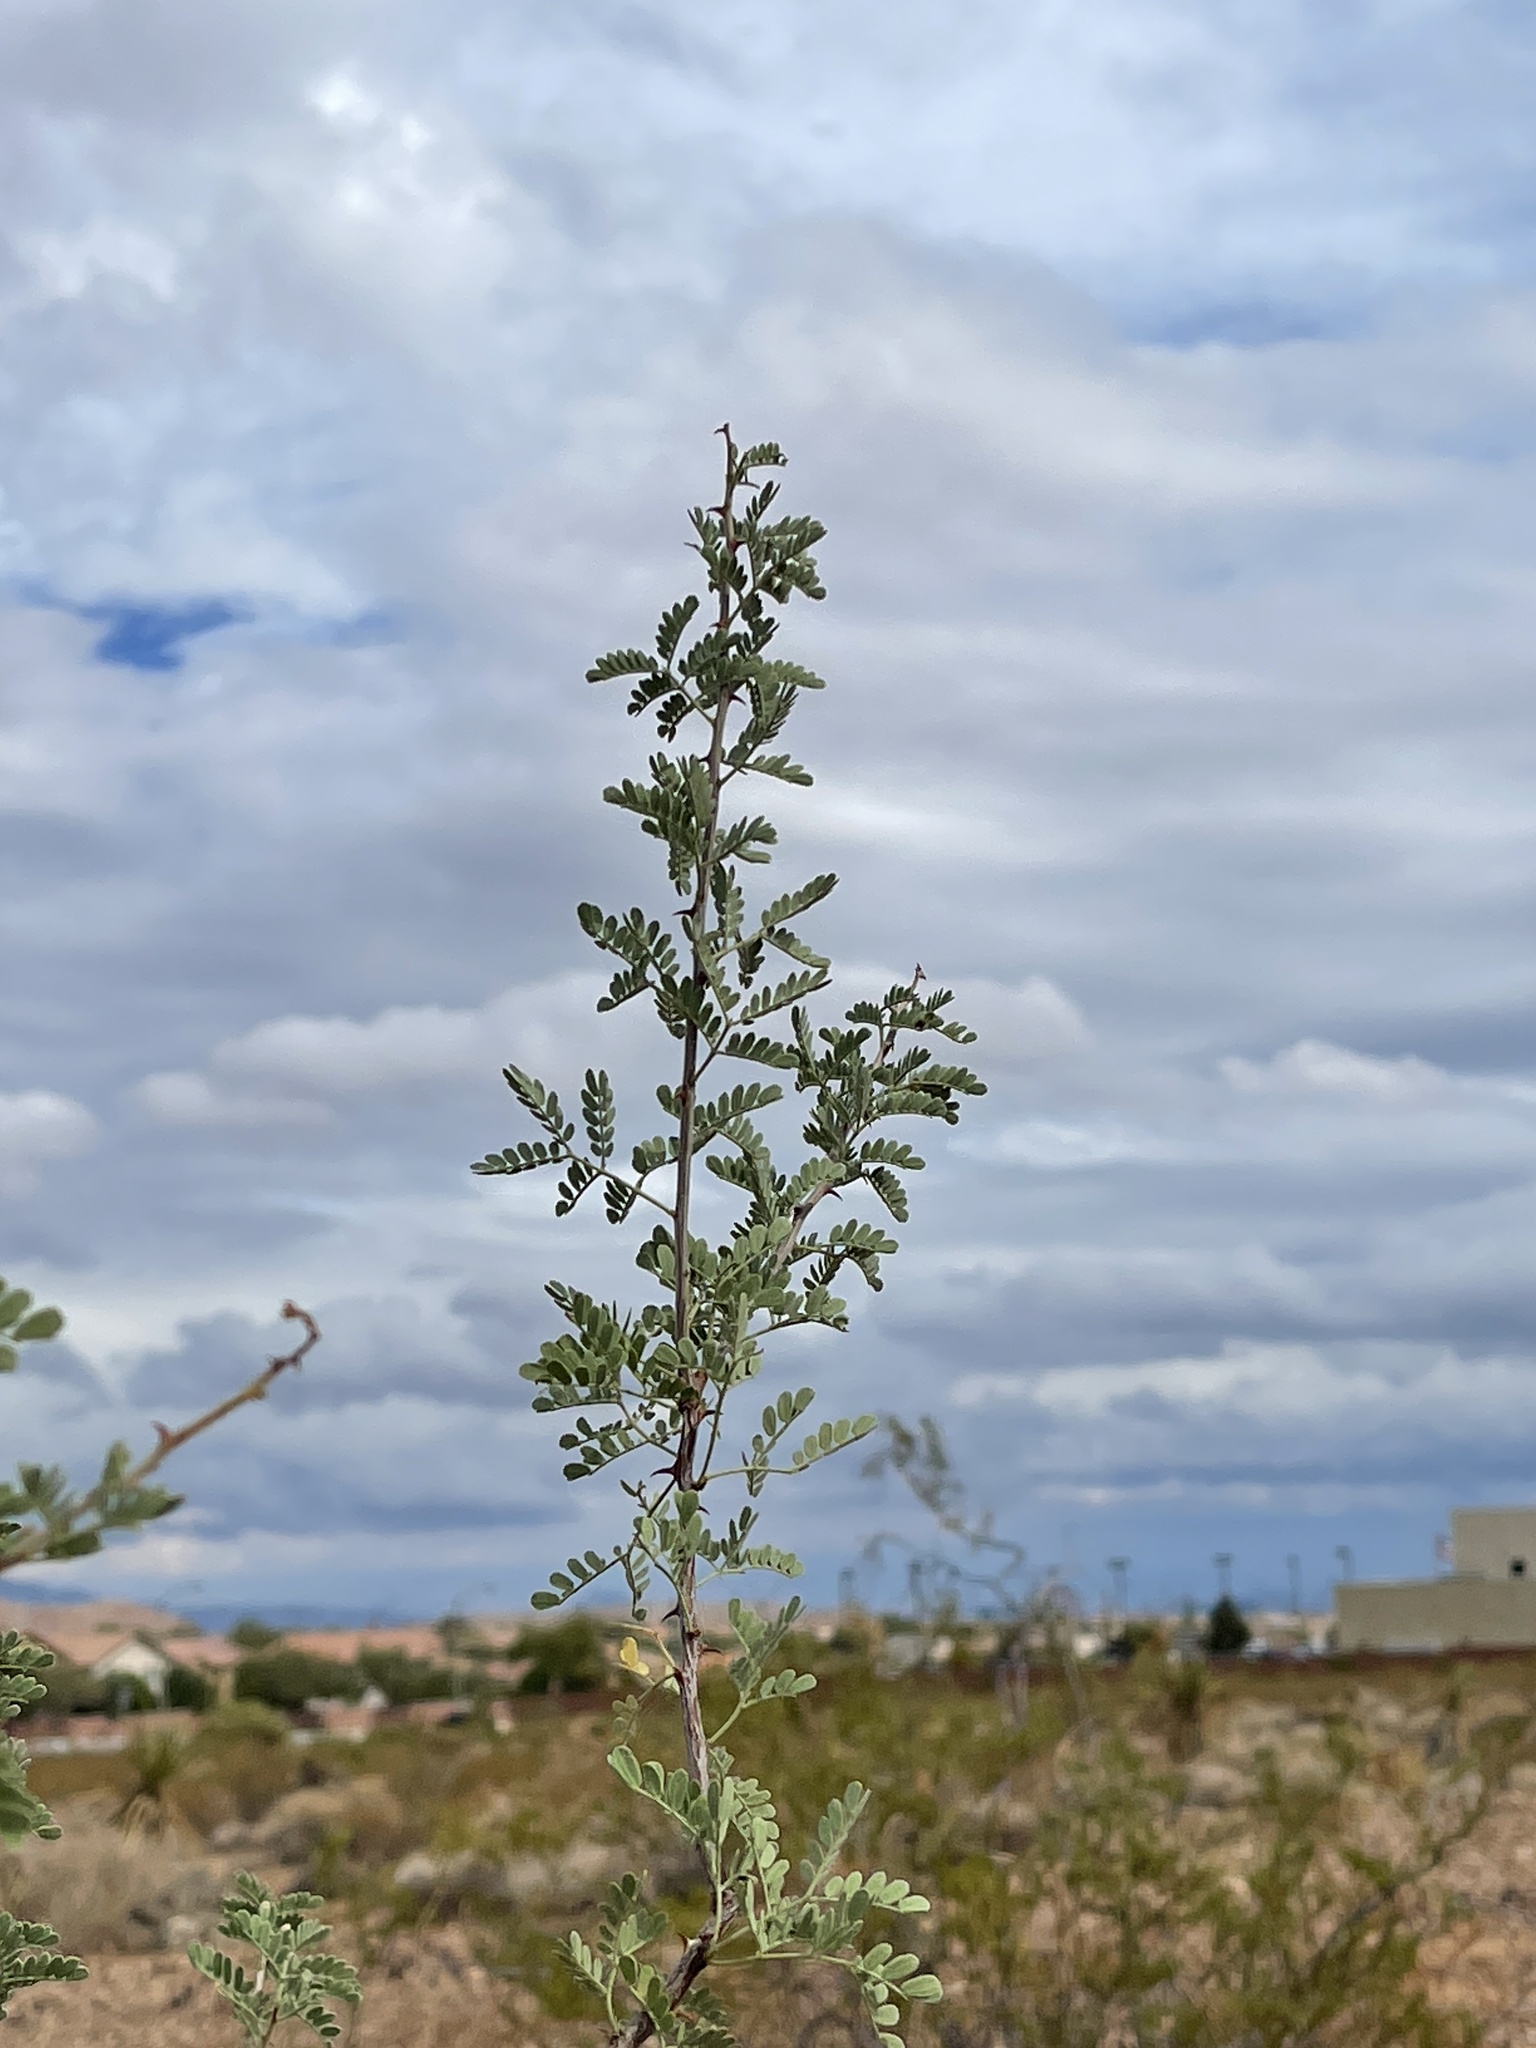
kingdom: Plantae
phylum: Tracheophyta
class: Magnoliopsida
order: Fabales
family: Fabaceae
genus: Senegalia
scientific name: Senegalia greggii
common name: Texas-mimosa
